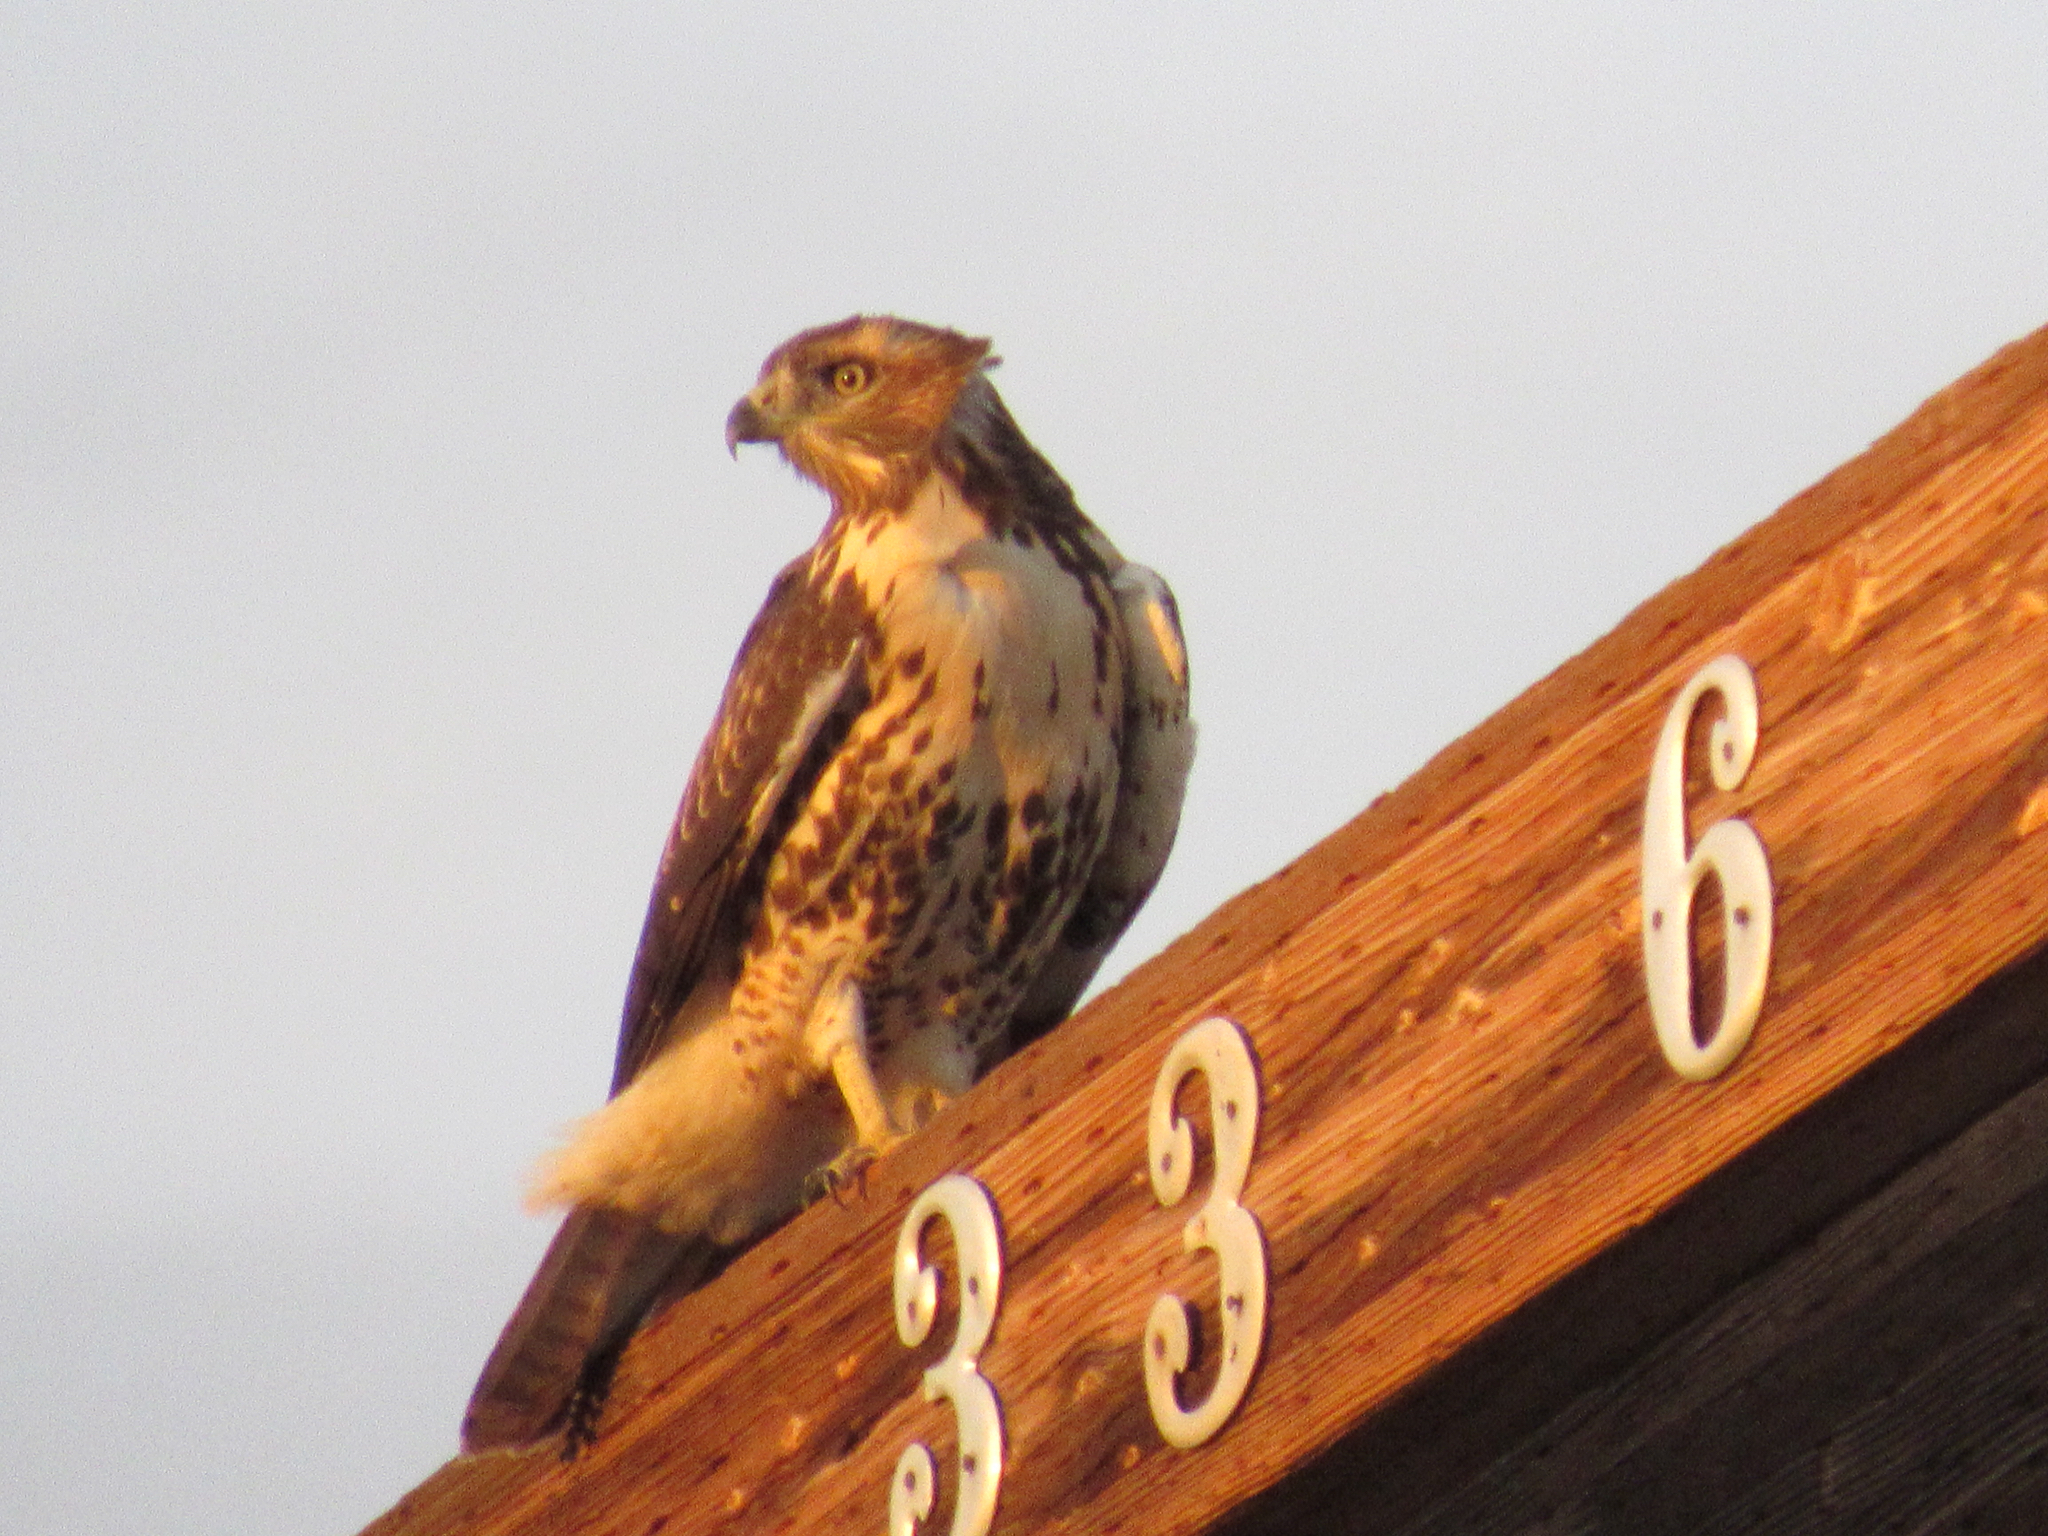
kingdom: Animalia
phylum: Chordata
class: Aves
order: Accipitriformes
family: Accipitridae
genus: Buteo
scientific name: Buteo jamaicensis
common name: Red-tailed hawk
